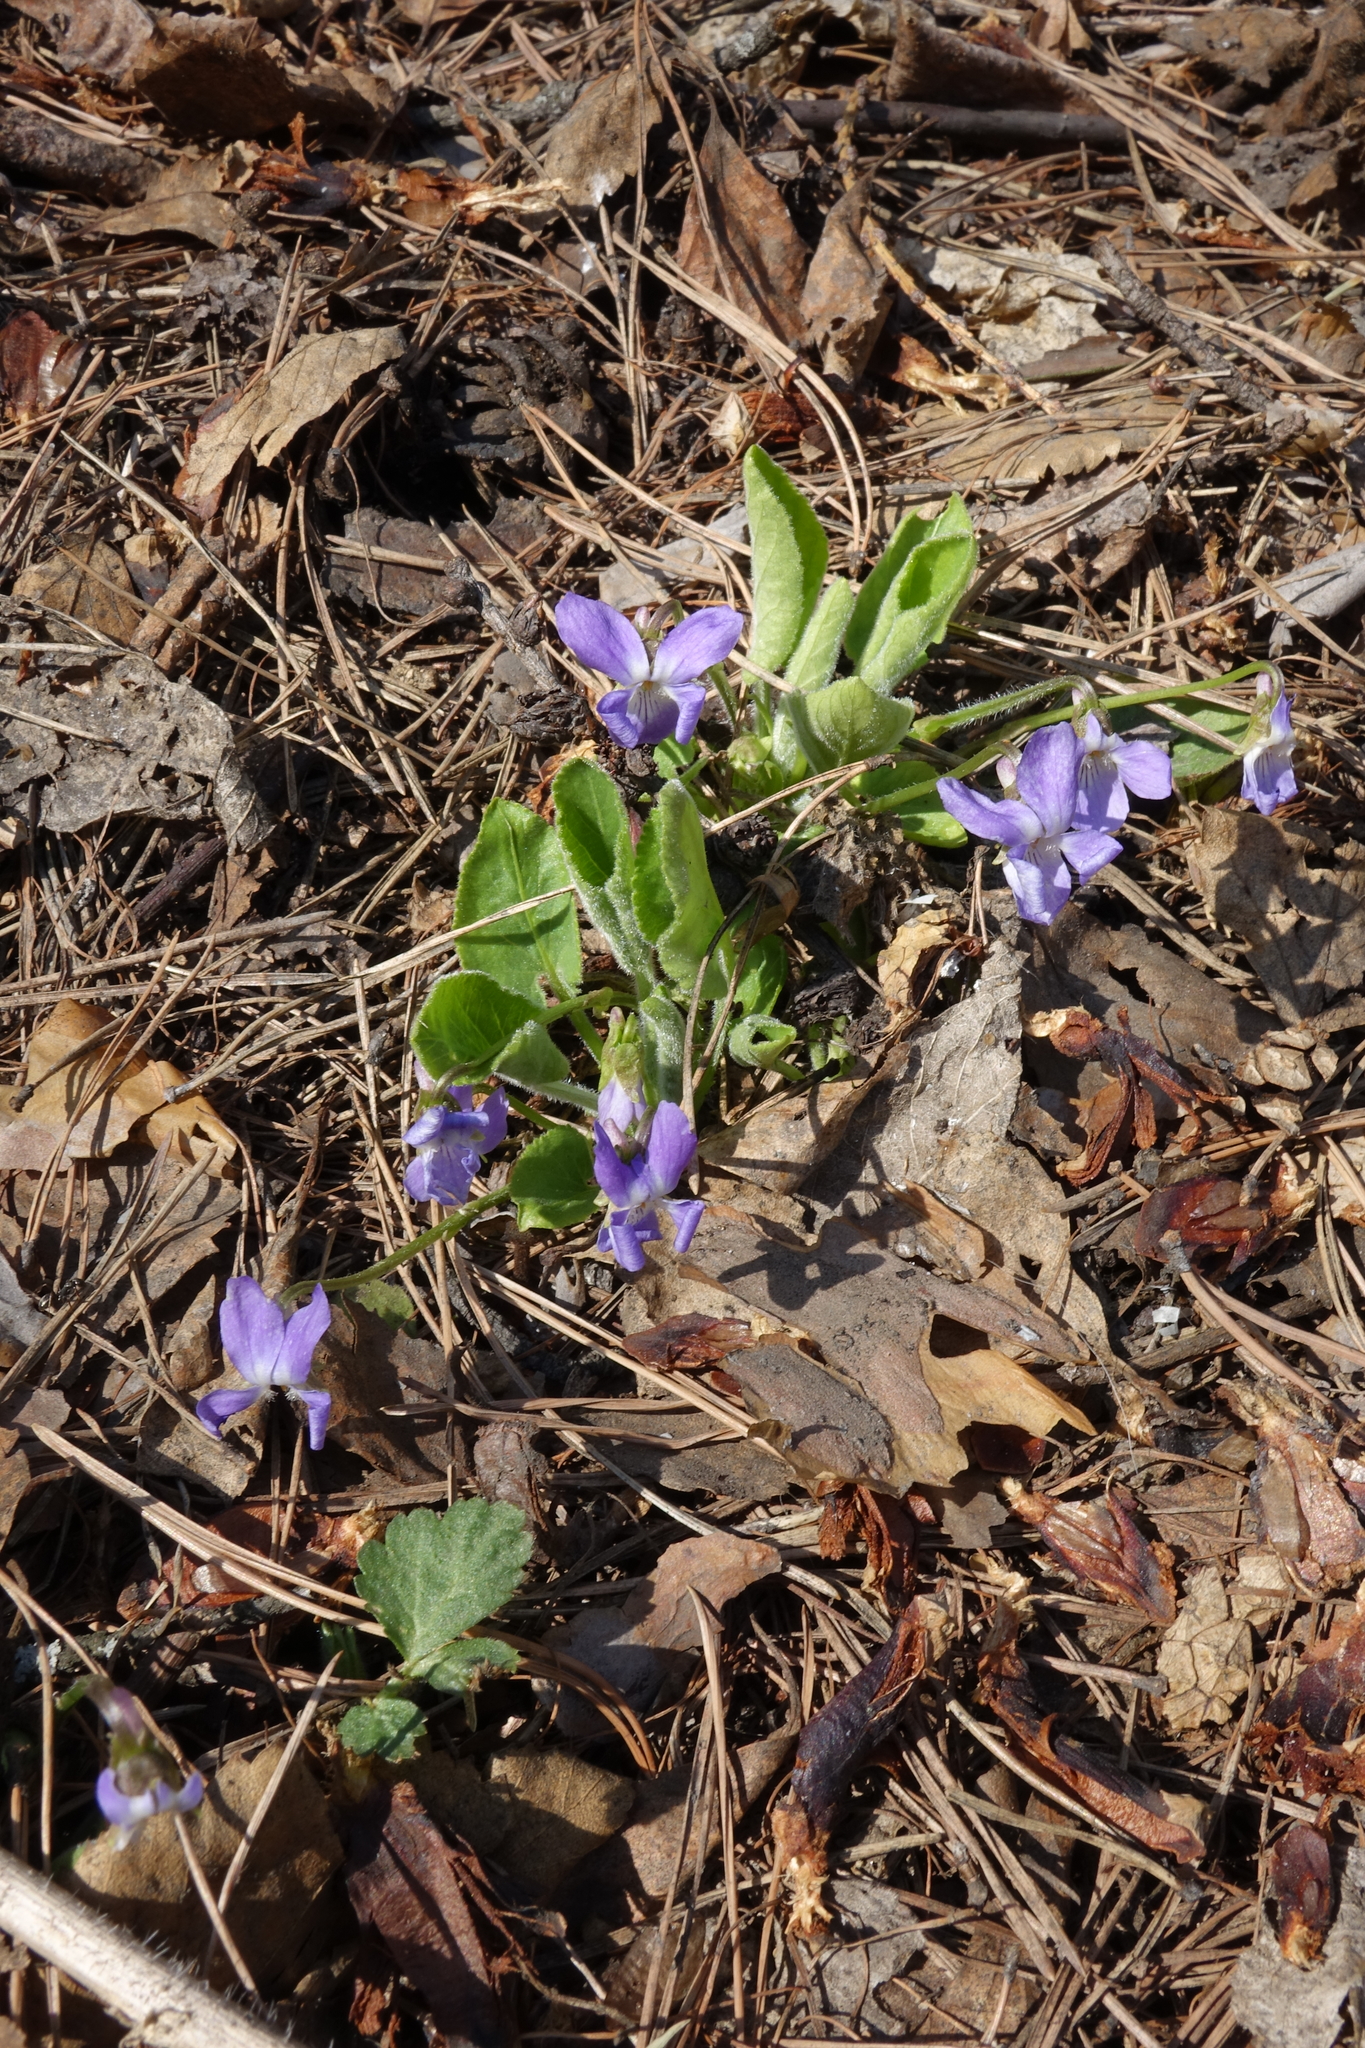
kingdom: Plantae
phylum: Tracheophyta
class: Magnoliopsida
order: Malpighiales
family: Violaceae
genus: Viola
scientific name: Viola hirta
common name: Hairy violet
